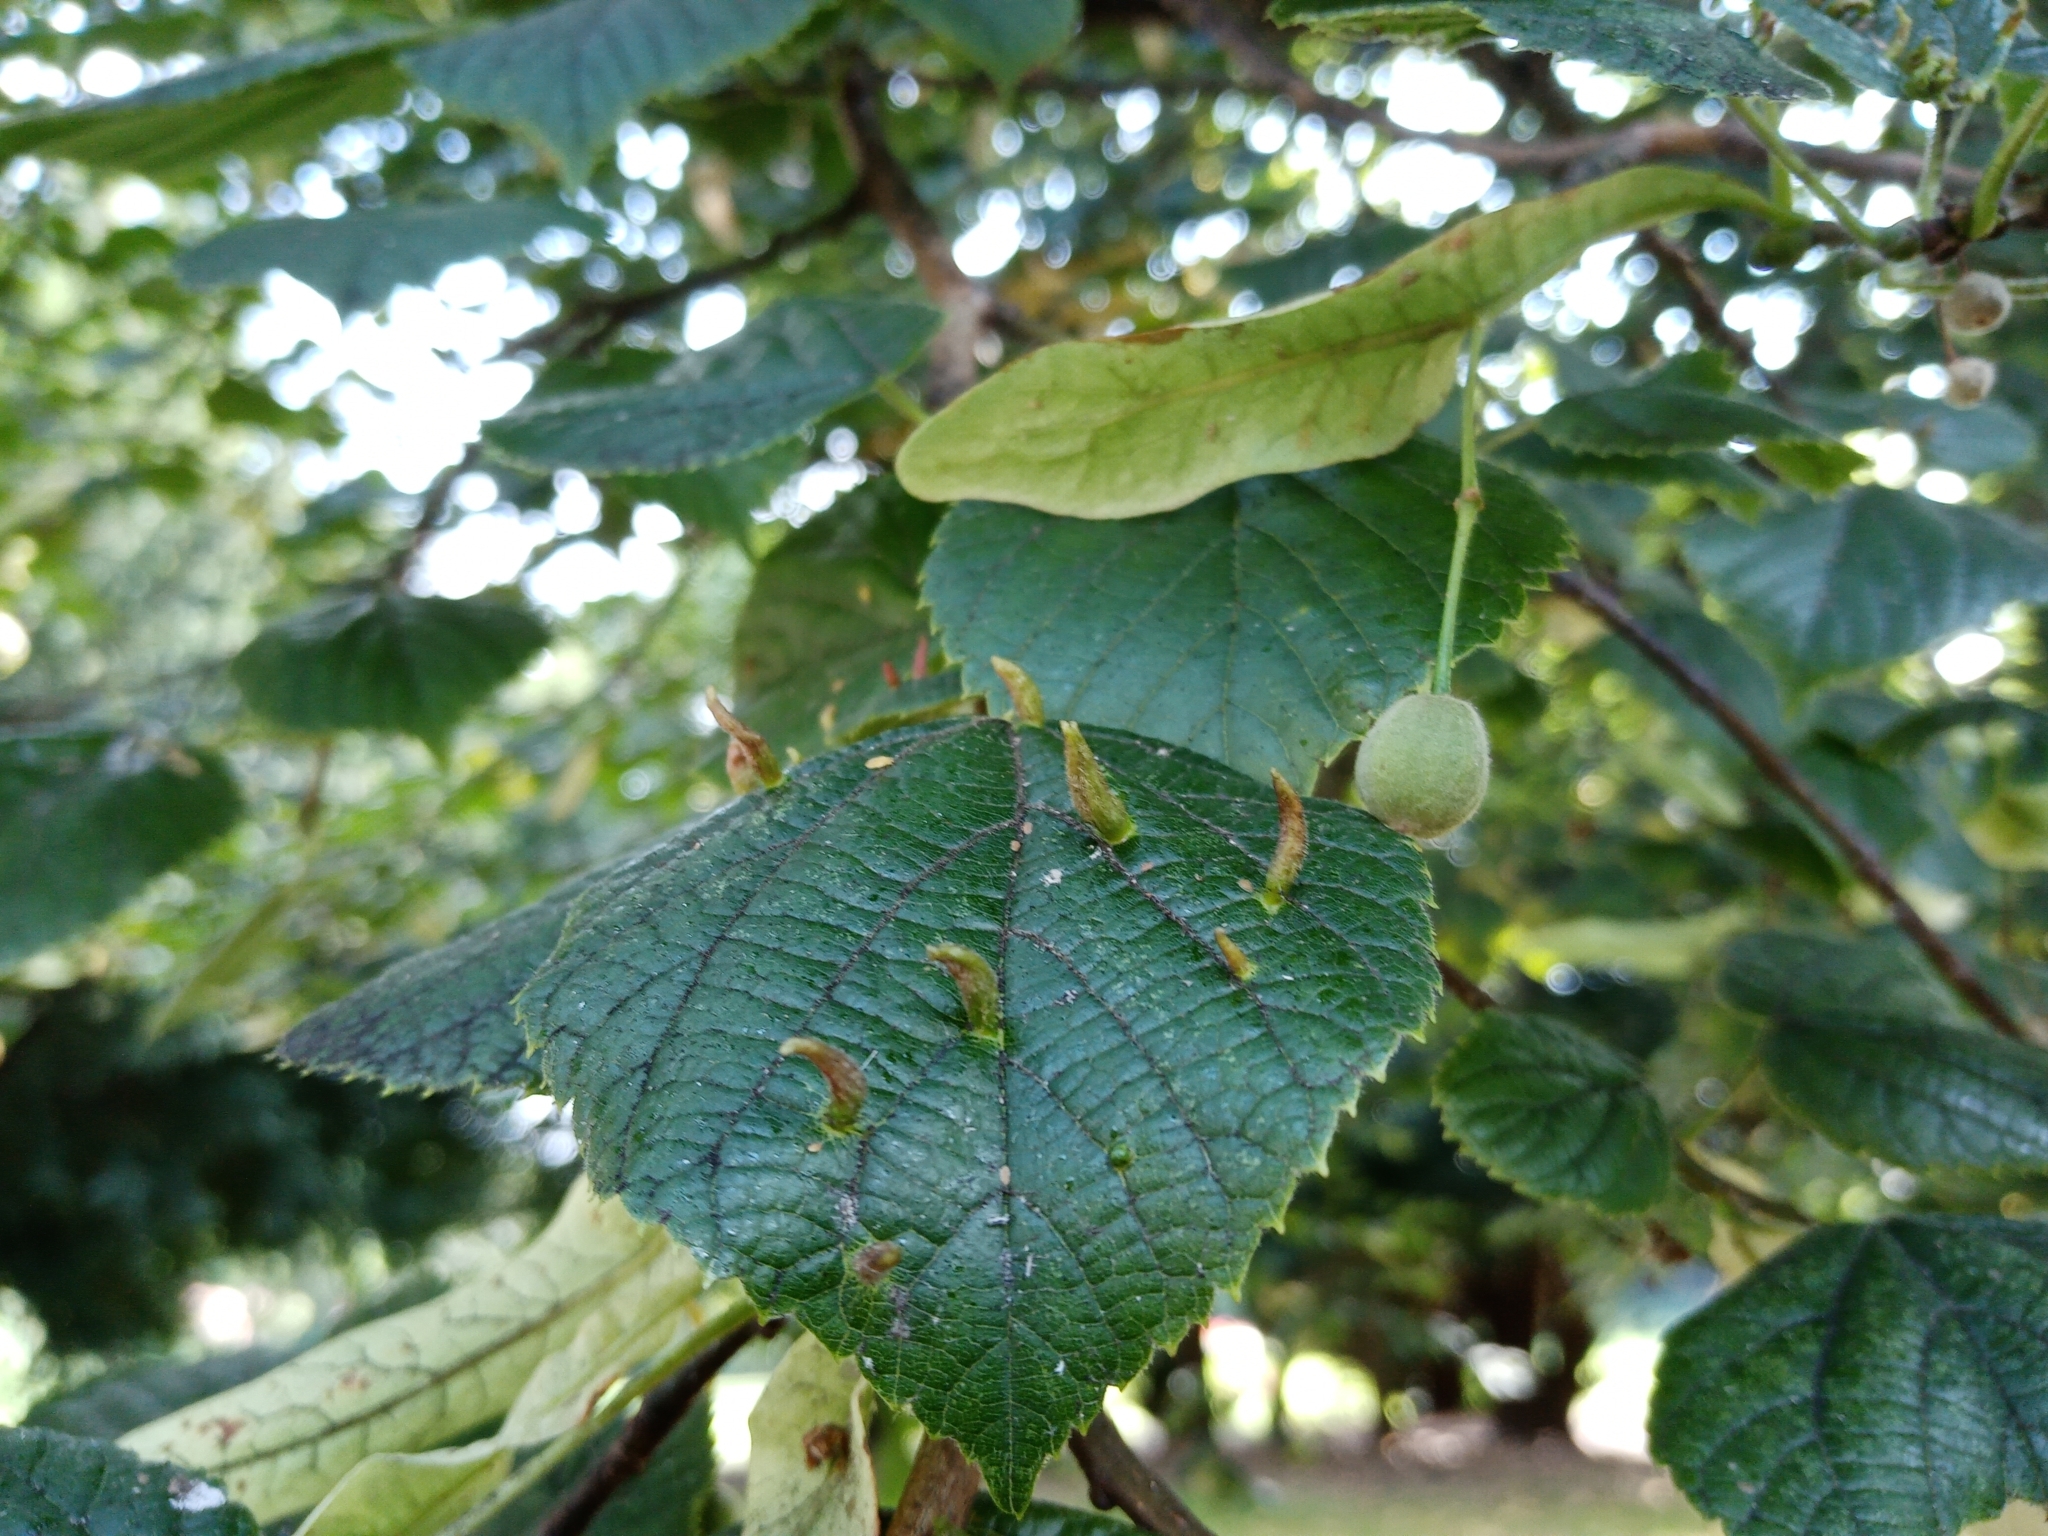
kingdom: Animalia
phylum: Arthropoda
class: Arachnida
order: Trombidiformes
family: Eriophyidae
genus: Eriophyes
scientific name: Eriophyes tiliae
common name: Red nail gall mite
